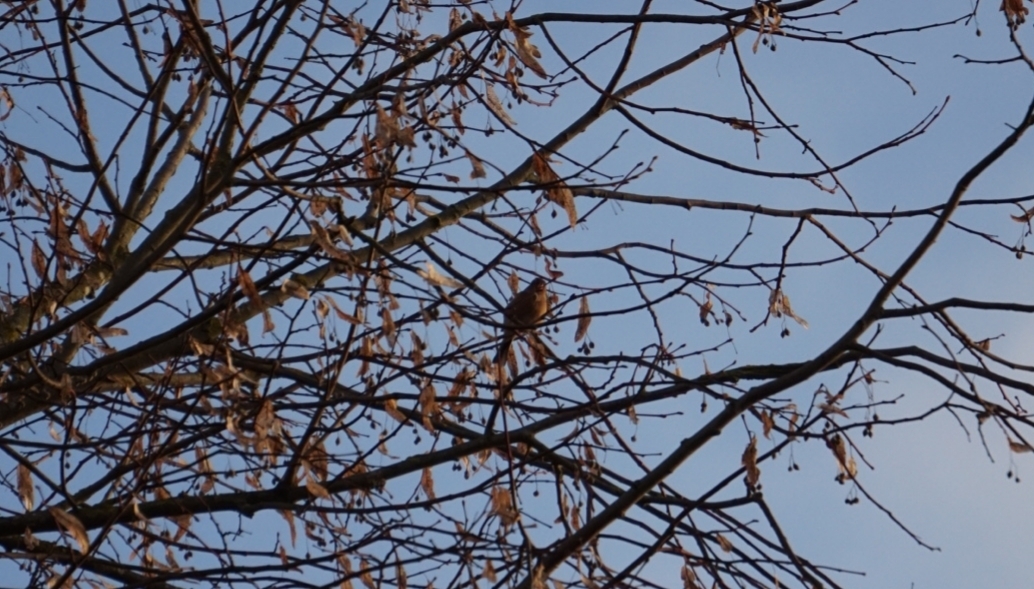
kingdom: Animalia
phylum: Chordata
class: Aves
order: Passeriformes
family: Fringillidae
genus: Fringilla
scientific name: Fringilla coelebs
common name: Common chaffinch
